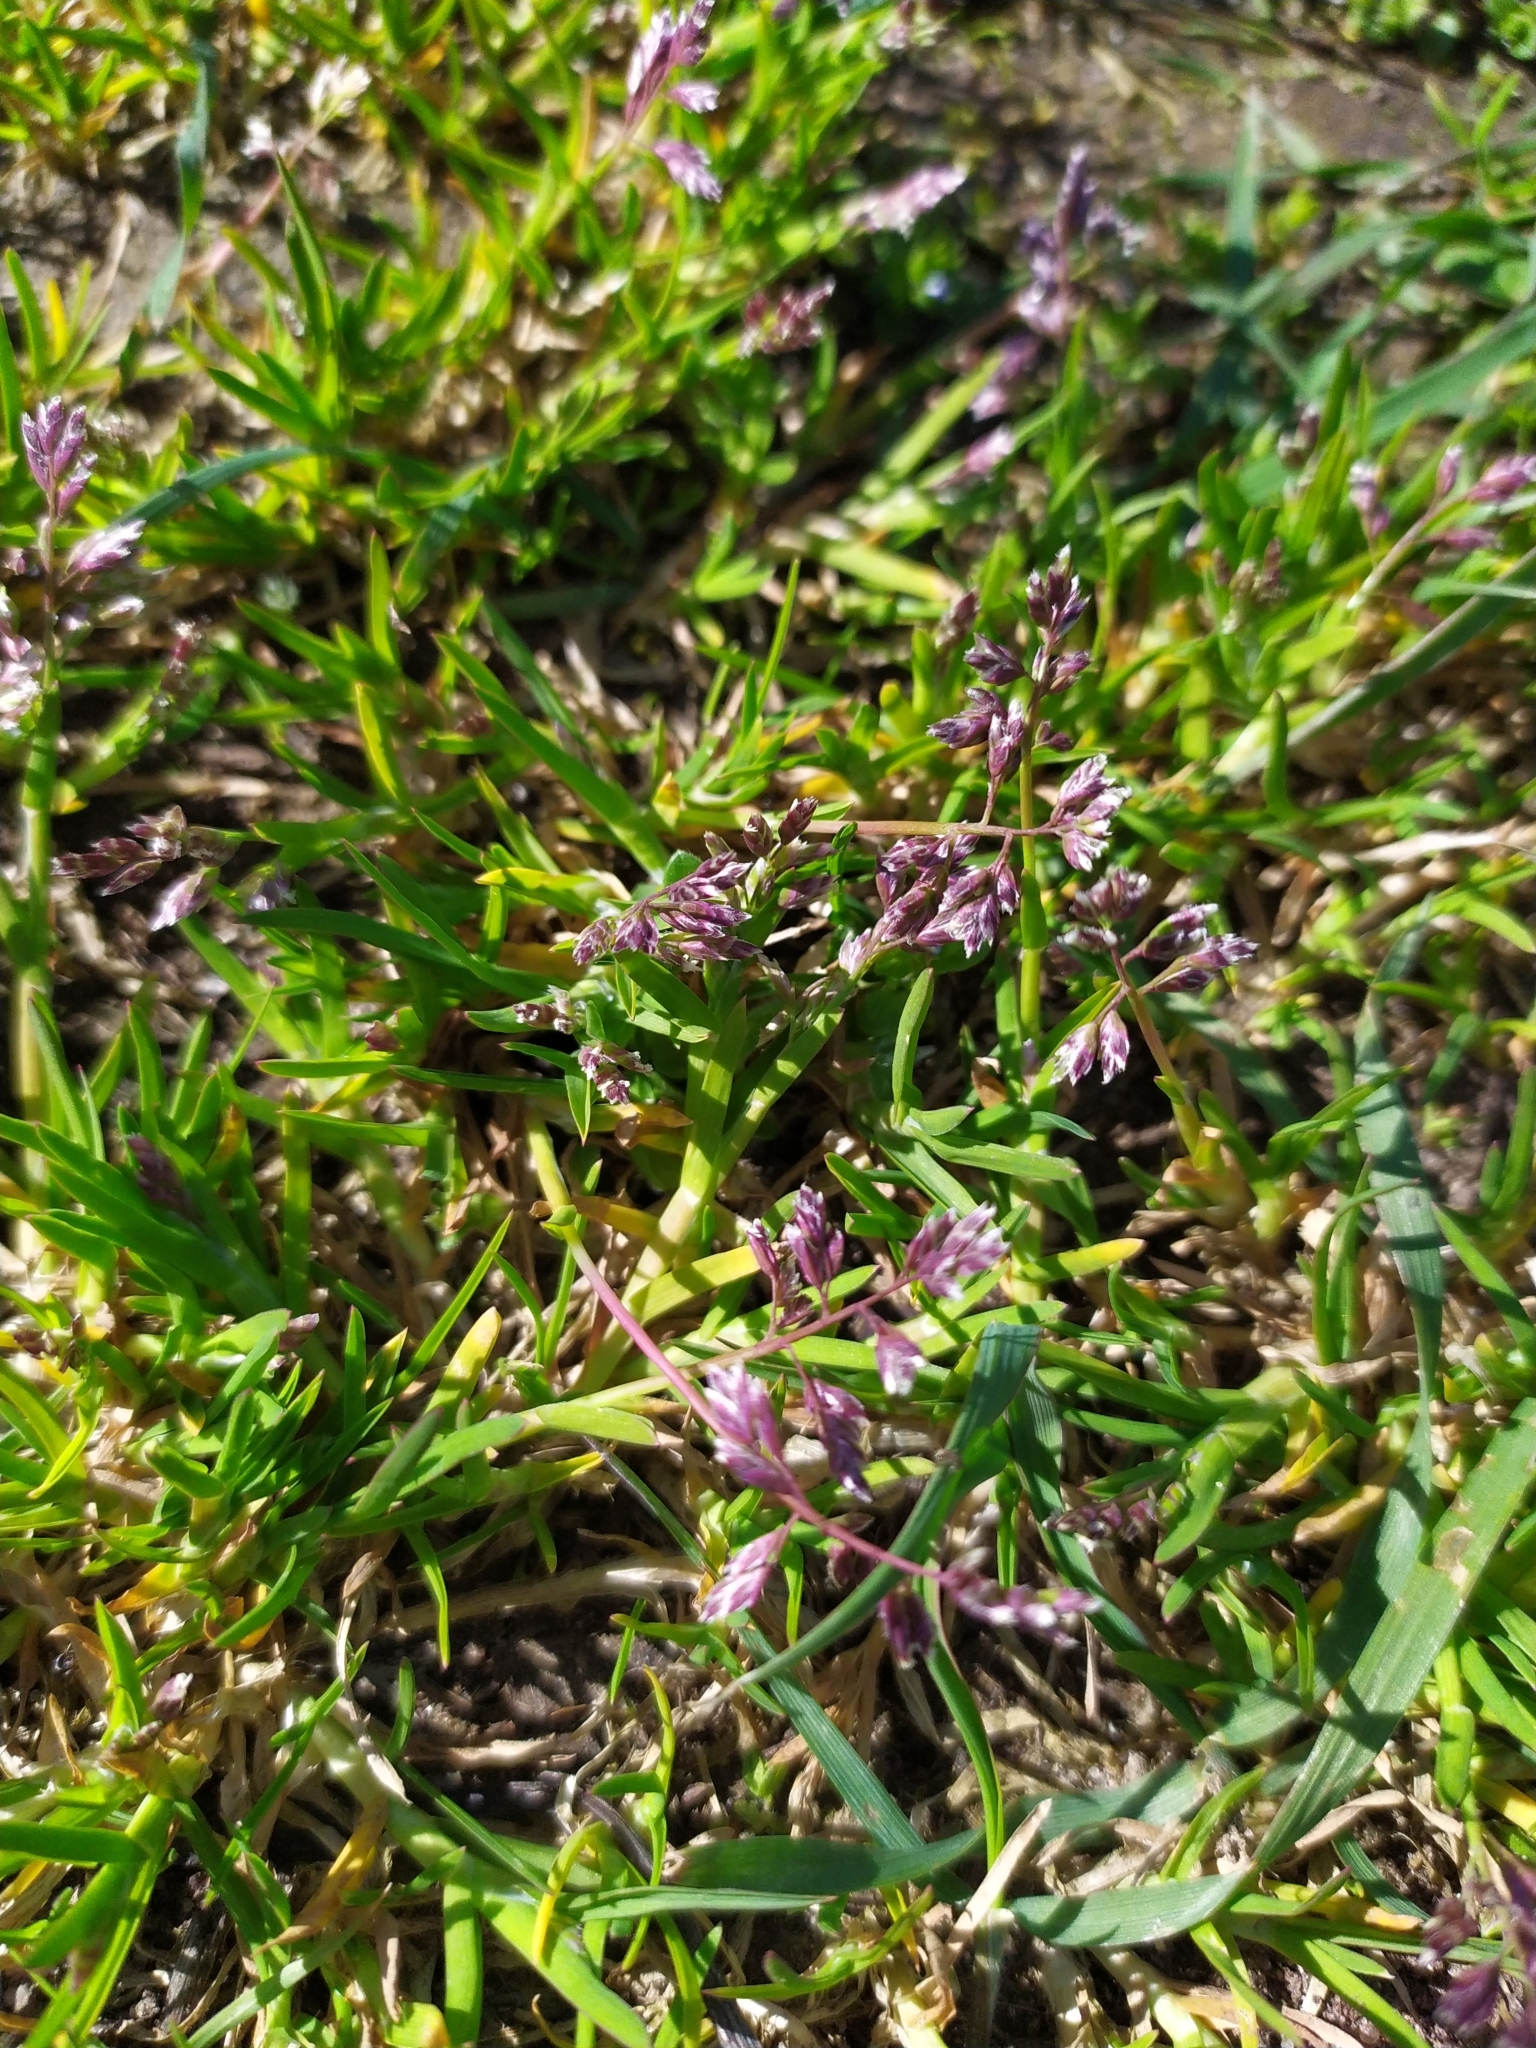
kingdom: Plantae
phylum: Tracheophyta
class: Liliopsida
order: Poales
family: Poaceae
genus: Poa
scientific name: Poa annua
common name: Annual bluegrass
